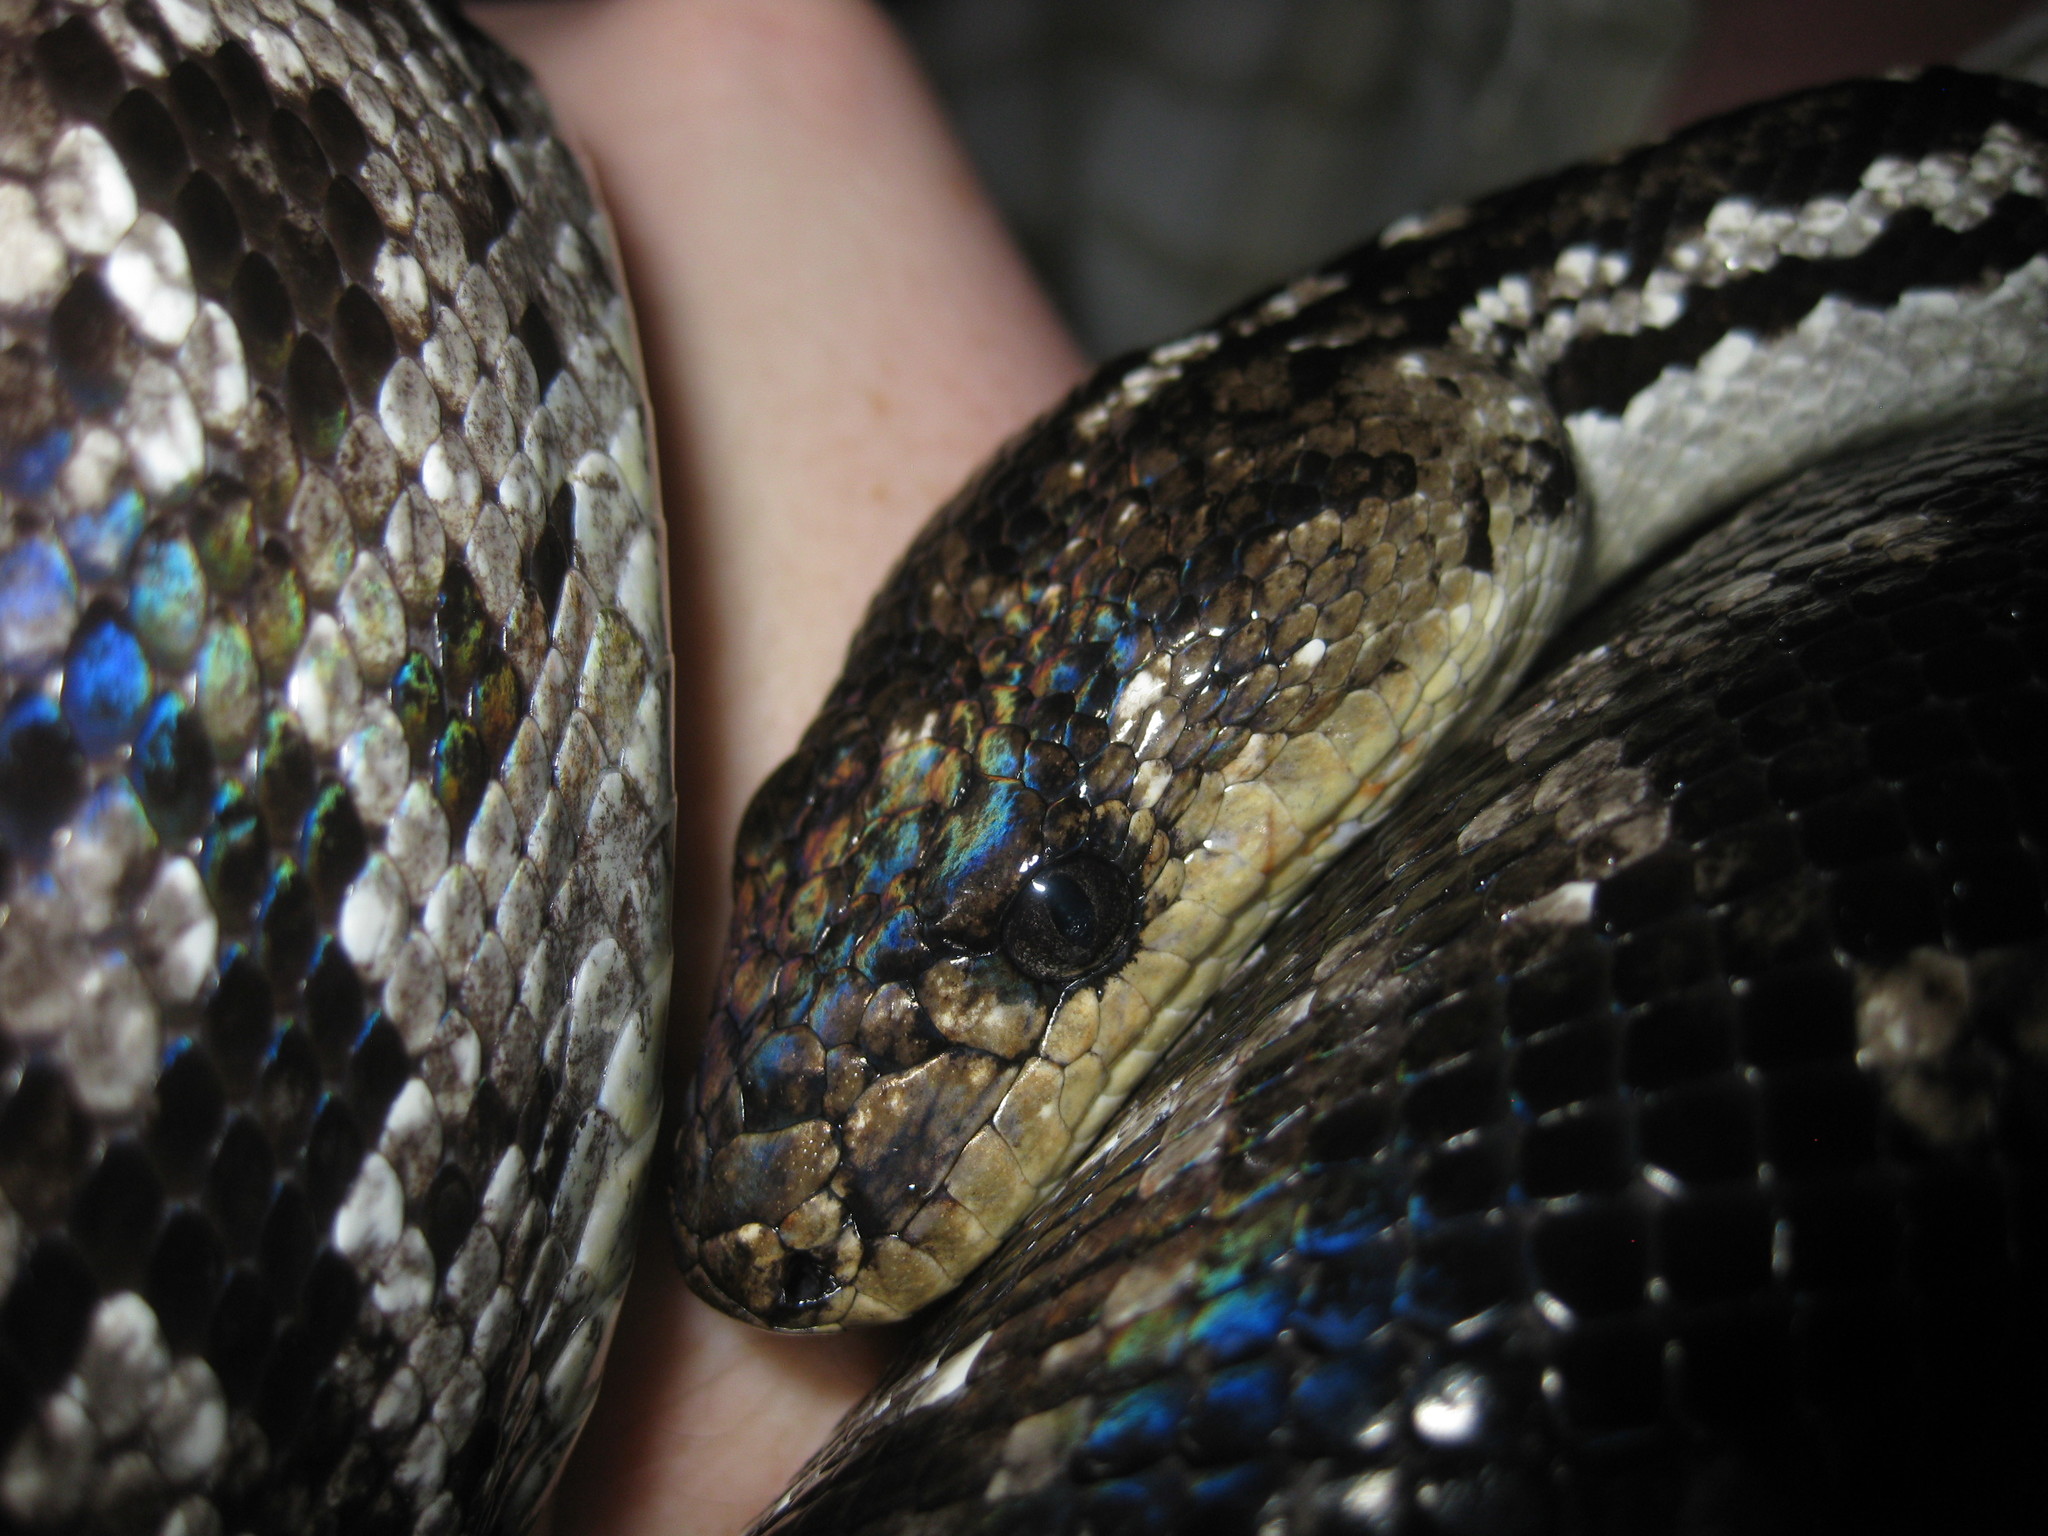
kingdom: Animalia
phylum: Chordata
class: Squamata
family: Boidae
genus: Chilabothrus
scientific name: Chilabothrus strigilatus
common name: Bahamian boa
